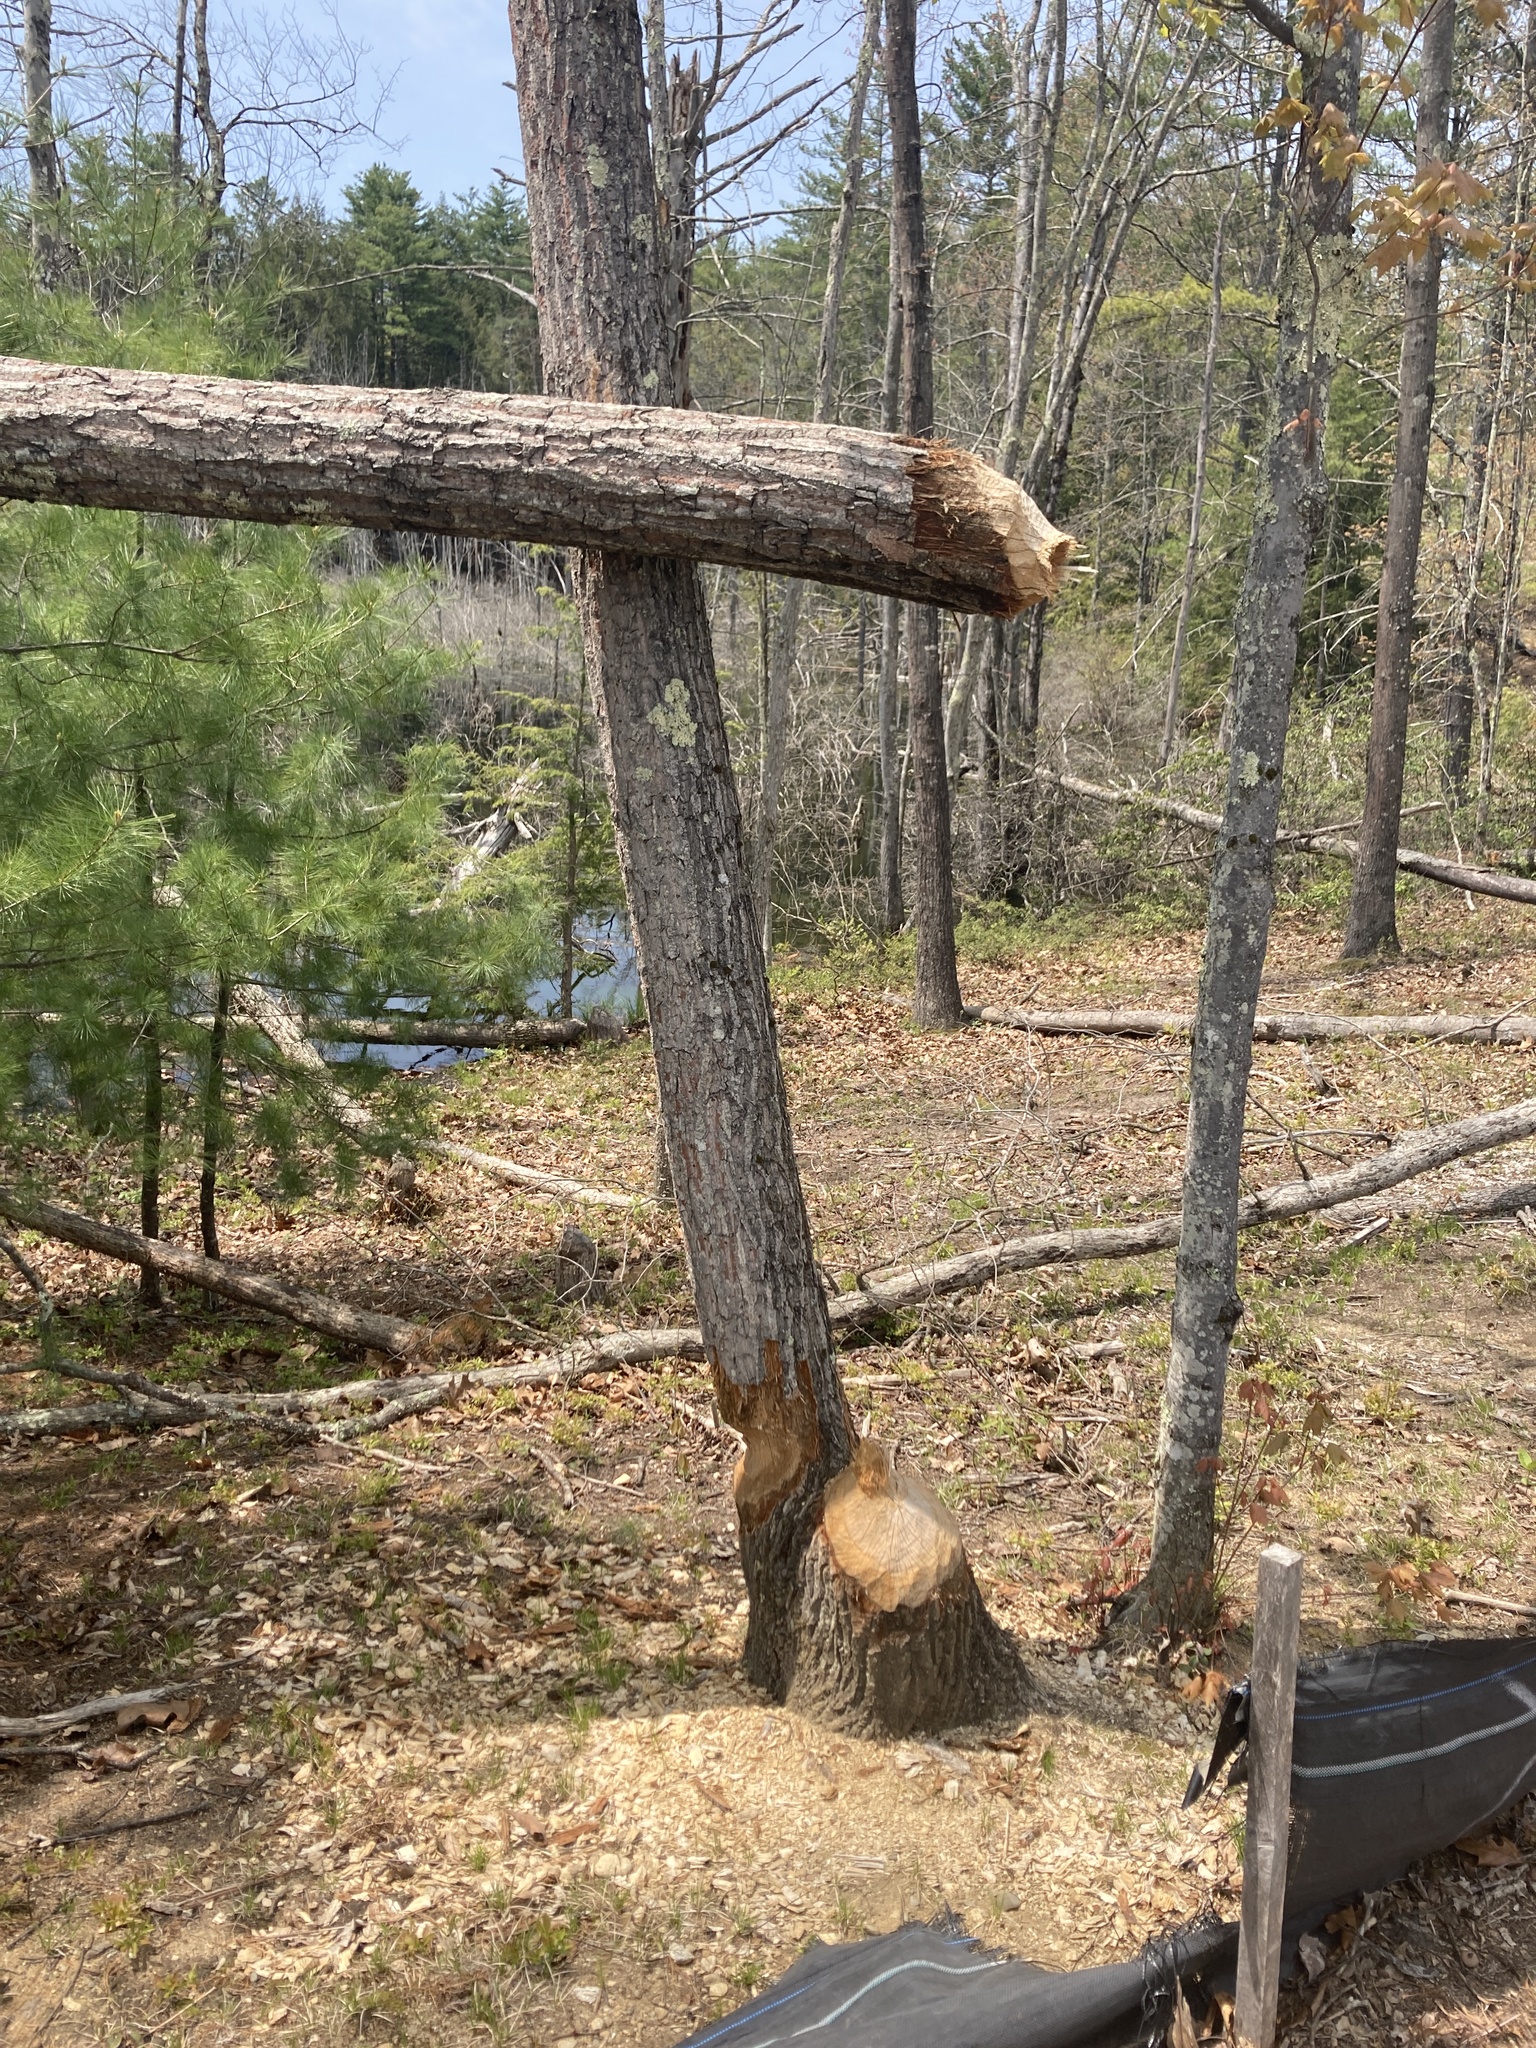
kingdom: Animalia
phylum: Chordata
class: Mammalia
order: Rodentia
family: Castoridae
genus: Castor
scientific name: Castor canadensis
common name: American beaver
